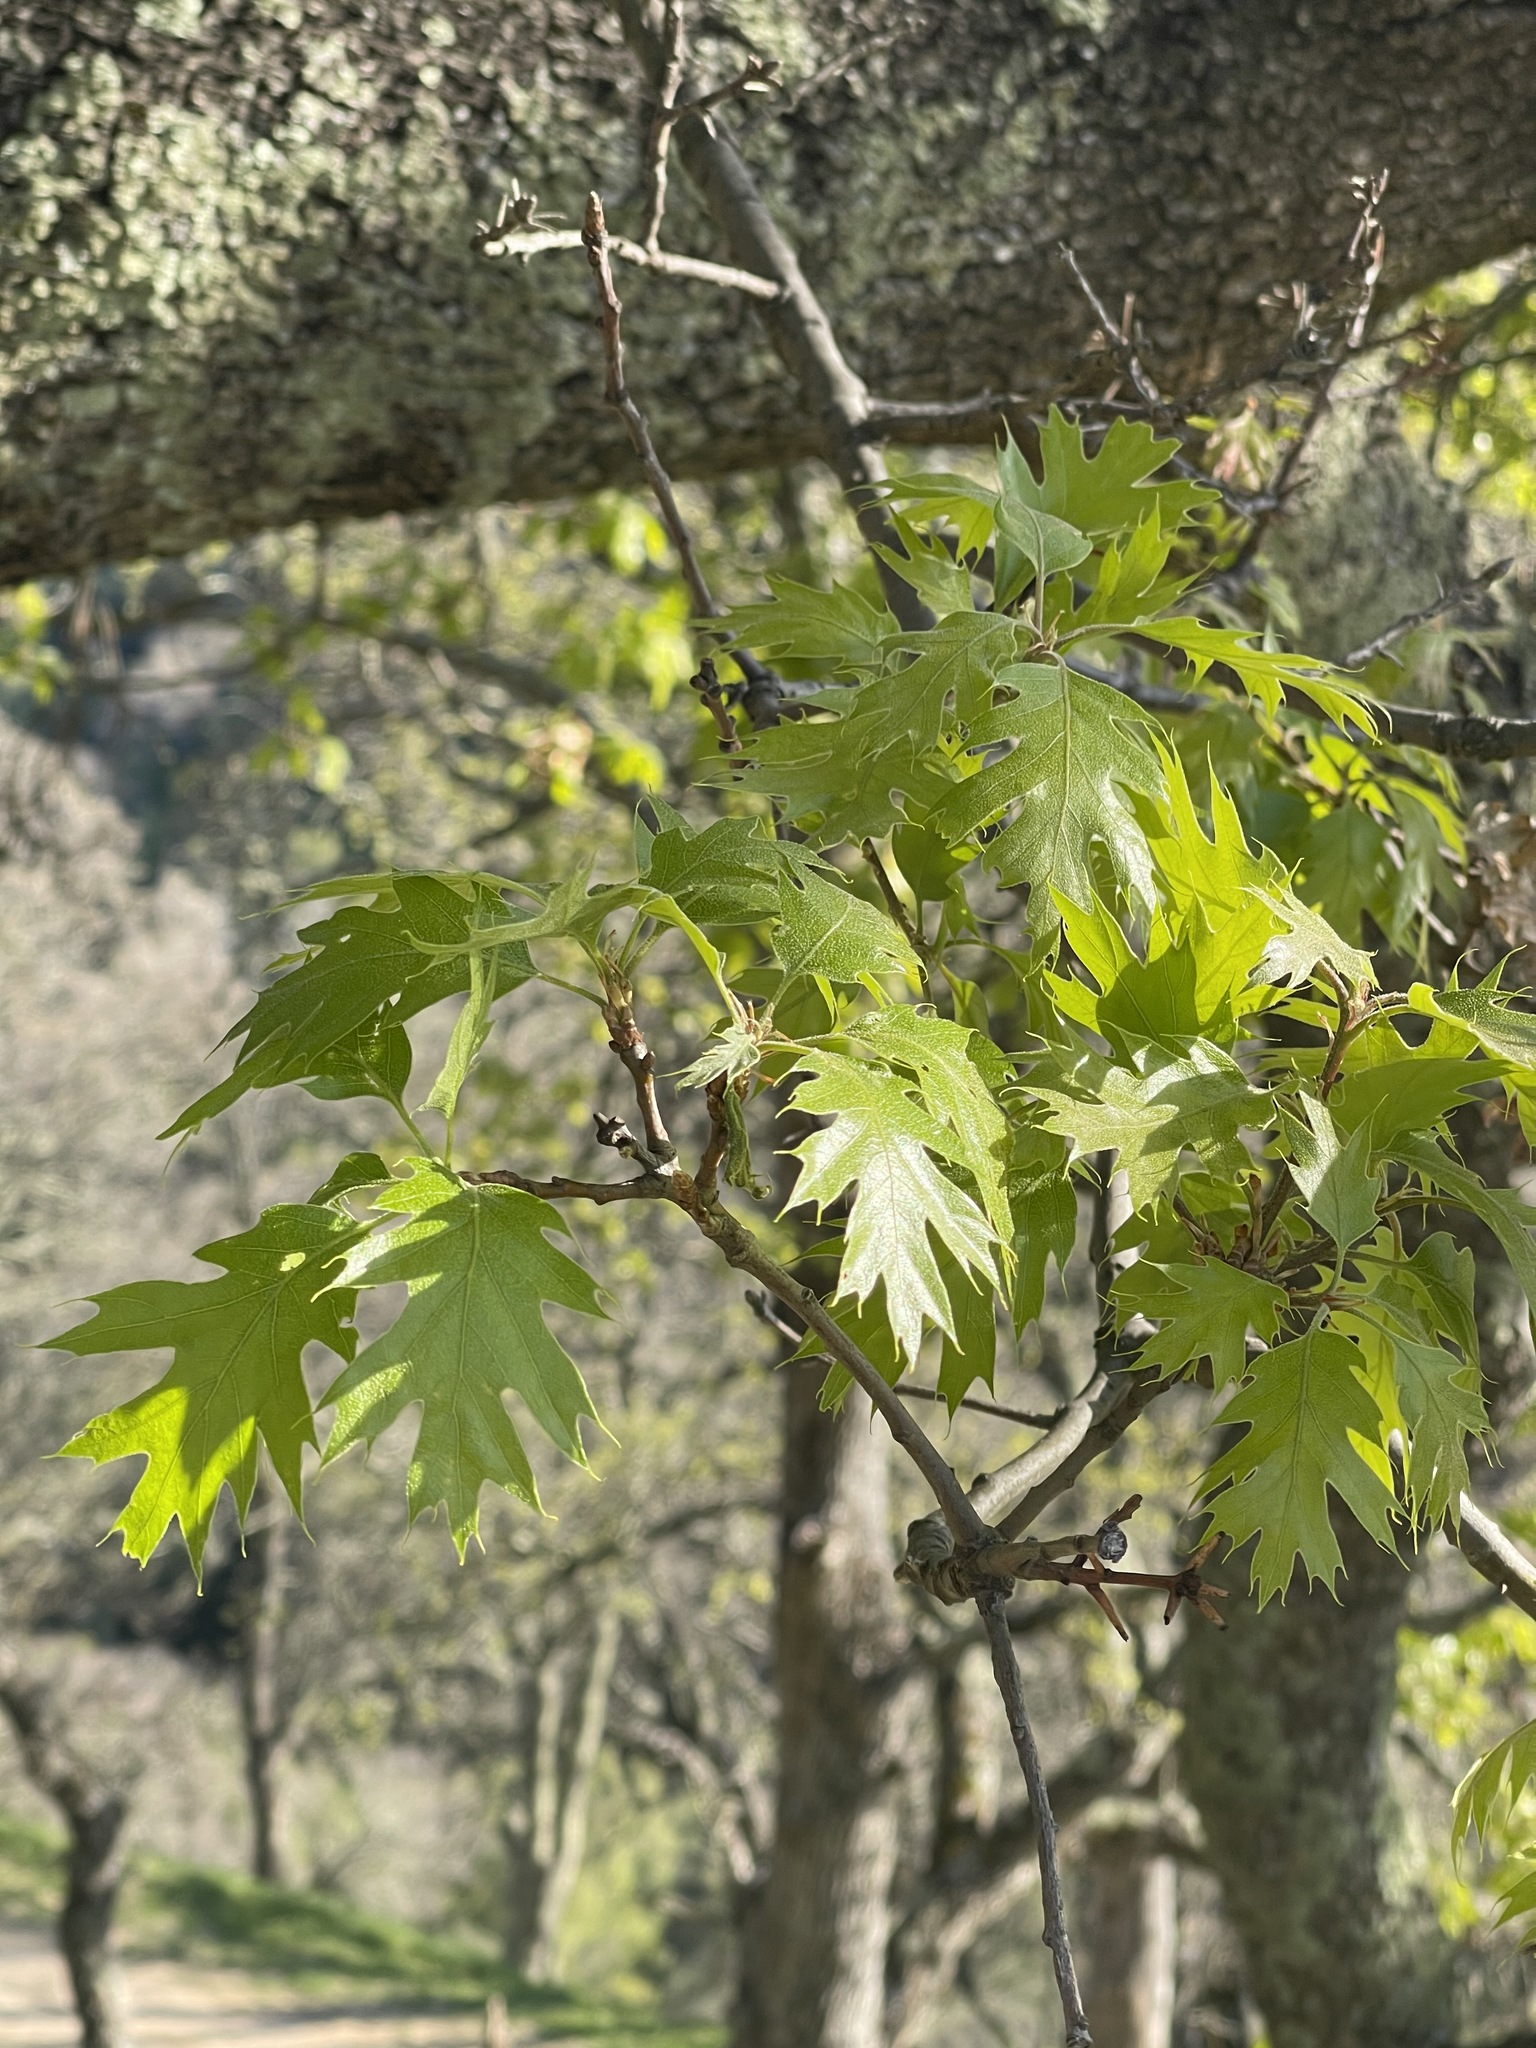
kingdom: Plantae
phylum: Tracheophyta
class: Magnoliopsida
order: Fagales
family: Fagaceae
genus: Quercus
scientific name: Quercus kelloggii
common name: California black oak
